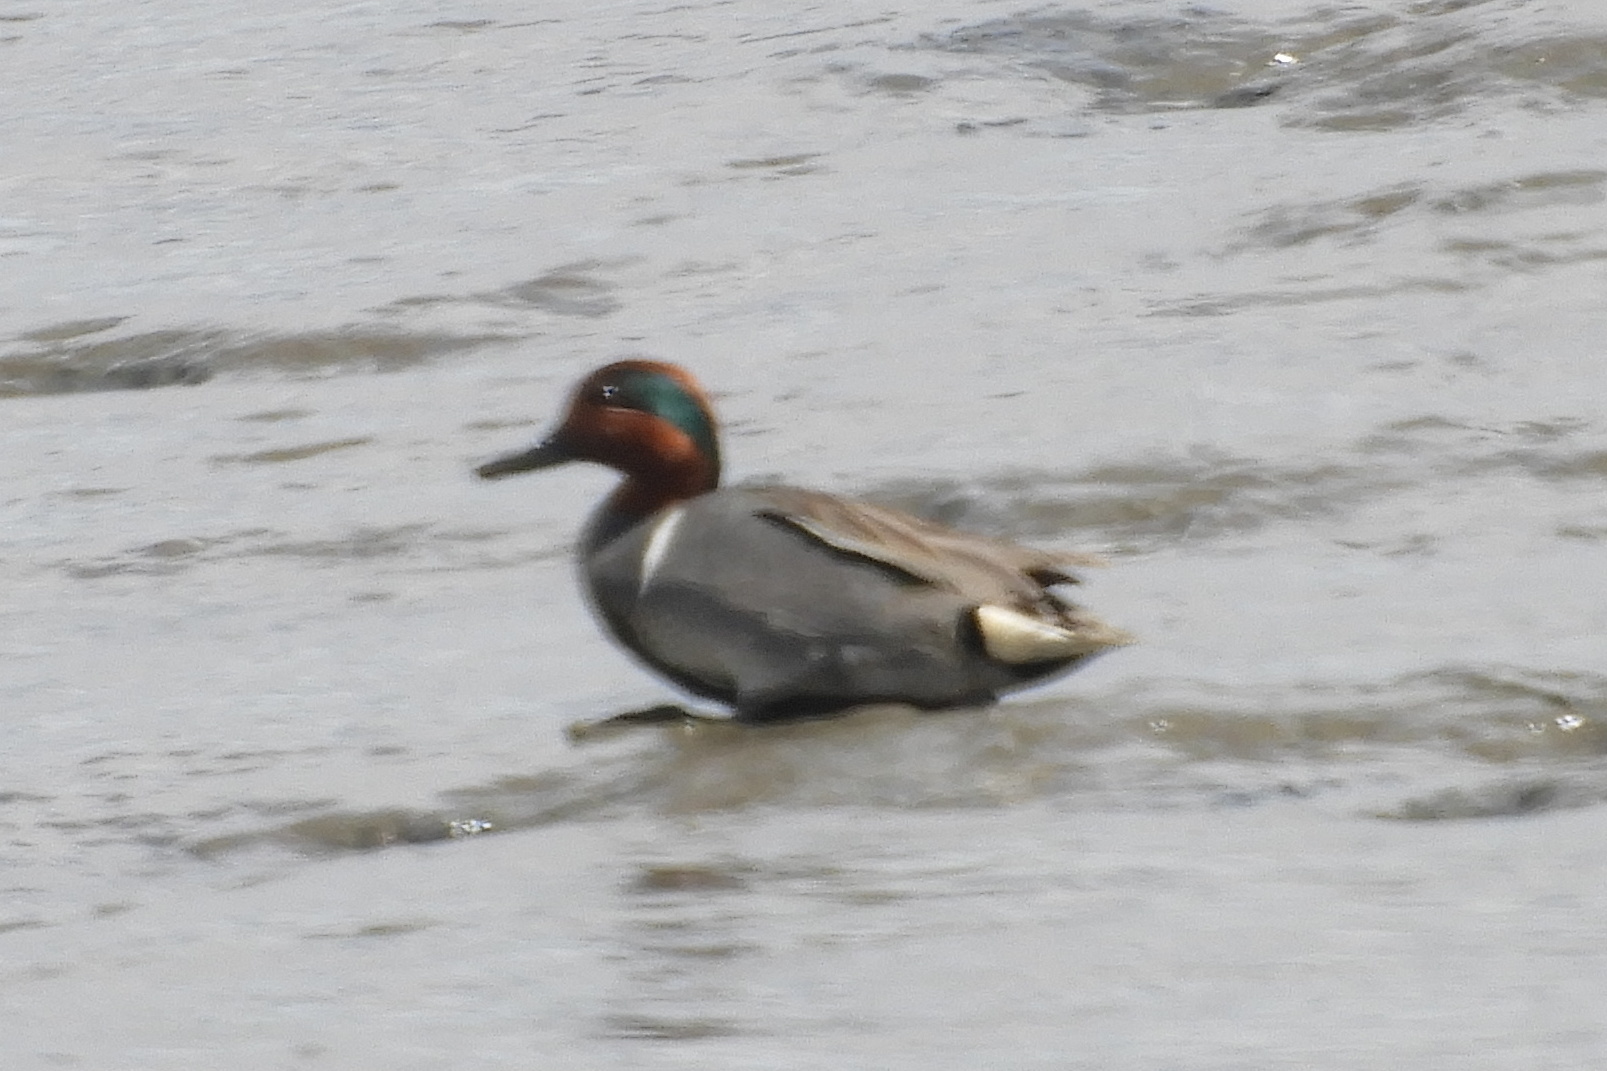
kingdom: Animalia
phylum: Chordata
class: Aves
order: Anseriformes
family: Anatidae
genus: Anas
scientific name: Anas crecca
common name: Eurasian teal
